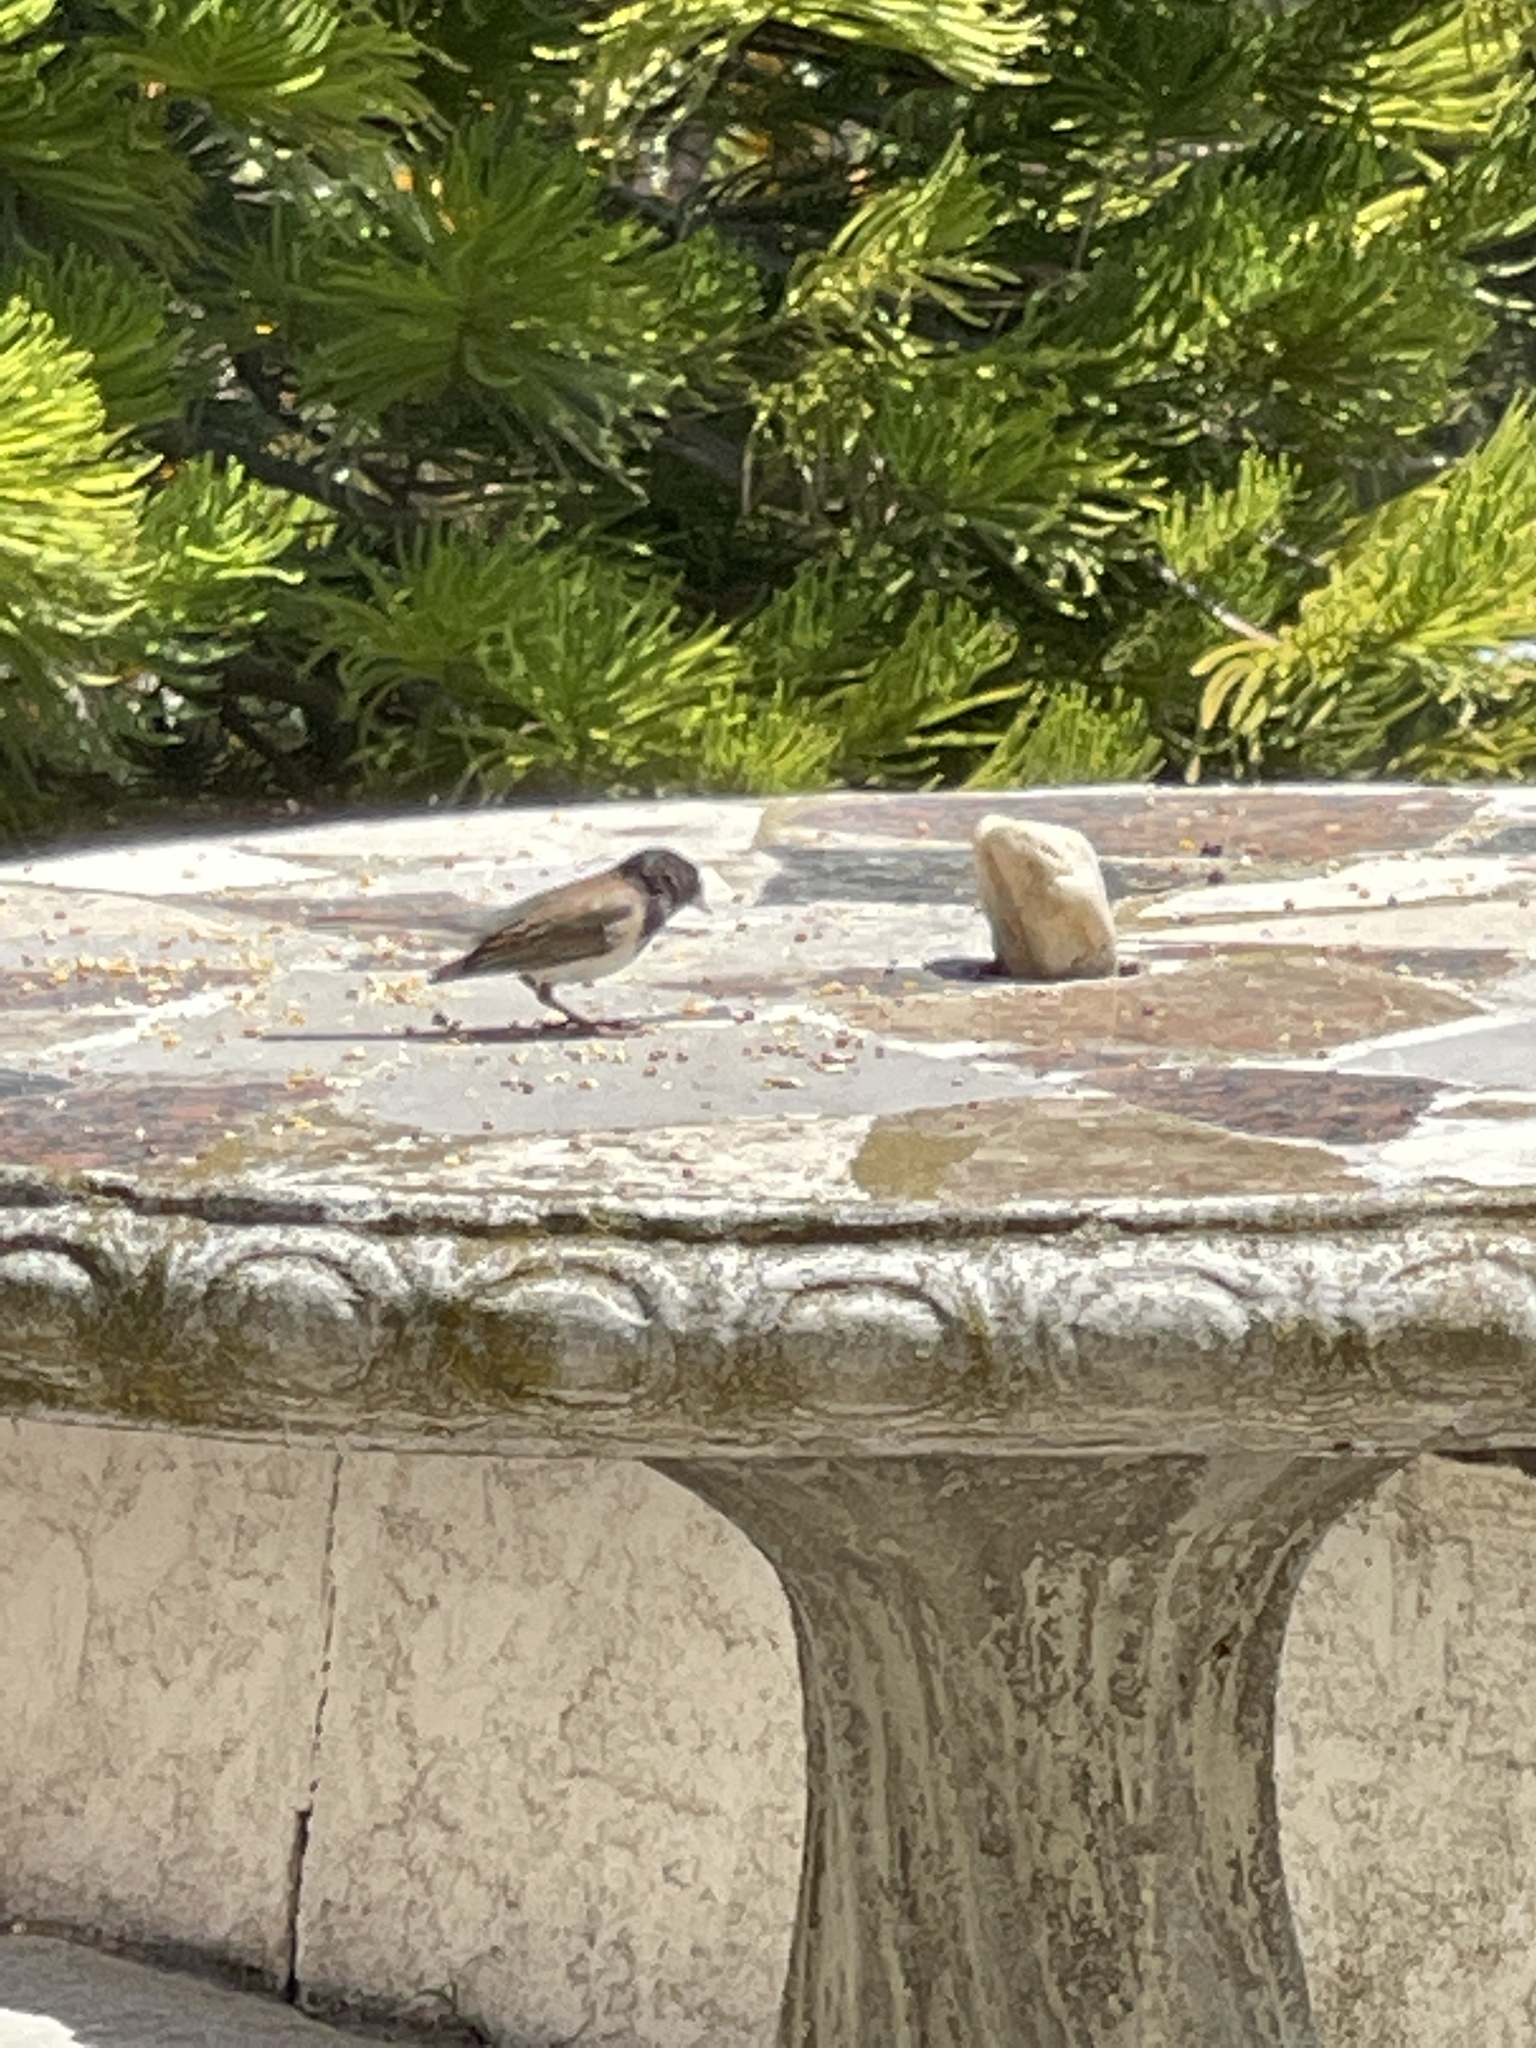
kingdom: Animalia
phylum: Chordata
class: Aves
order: Passeriformes
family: Passerellidae
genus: Junco
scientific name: Junco hyemalis
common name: Dark-eyed junco
